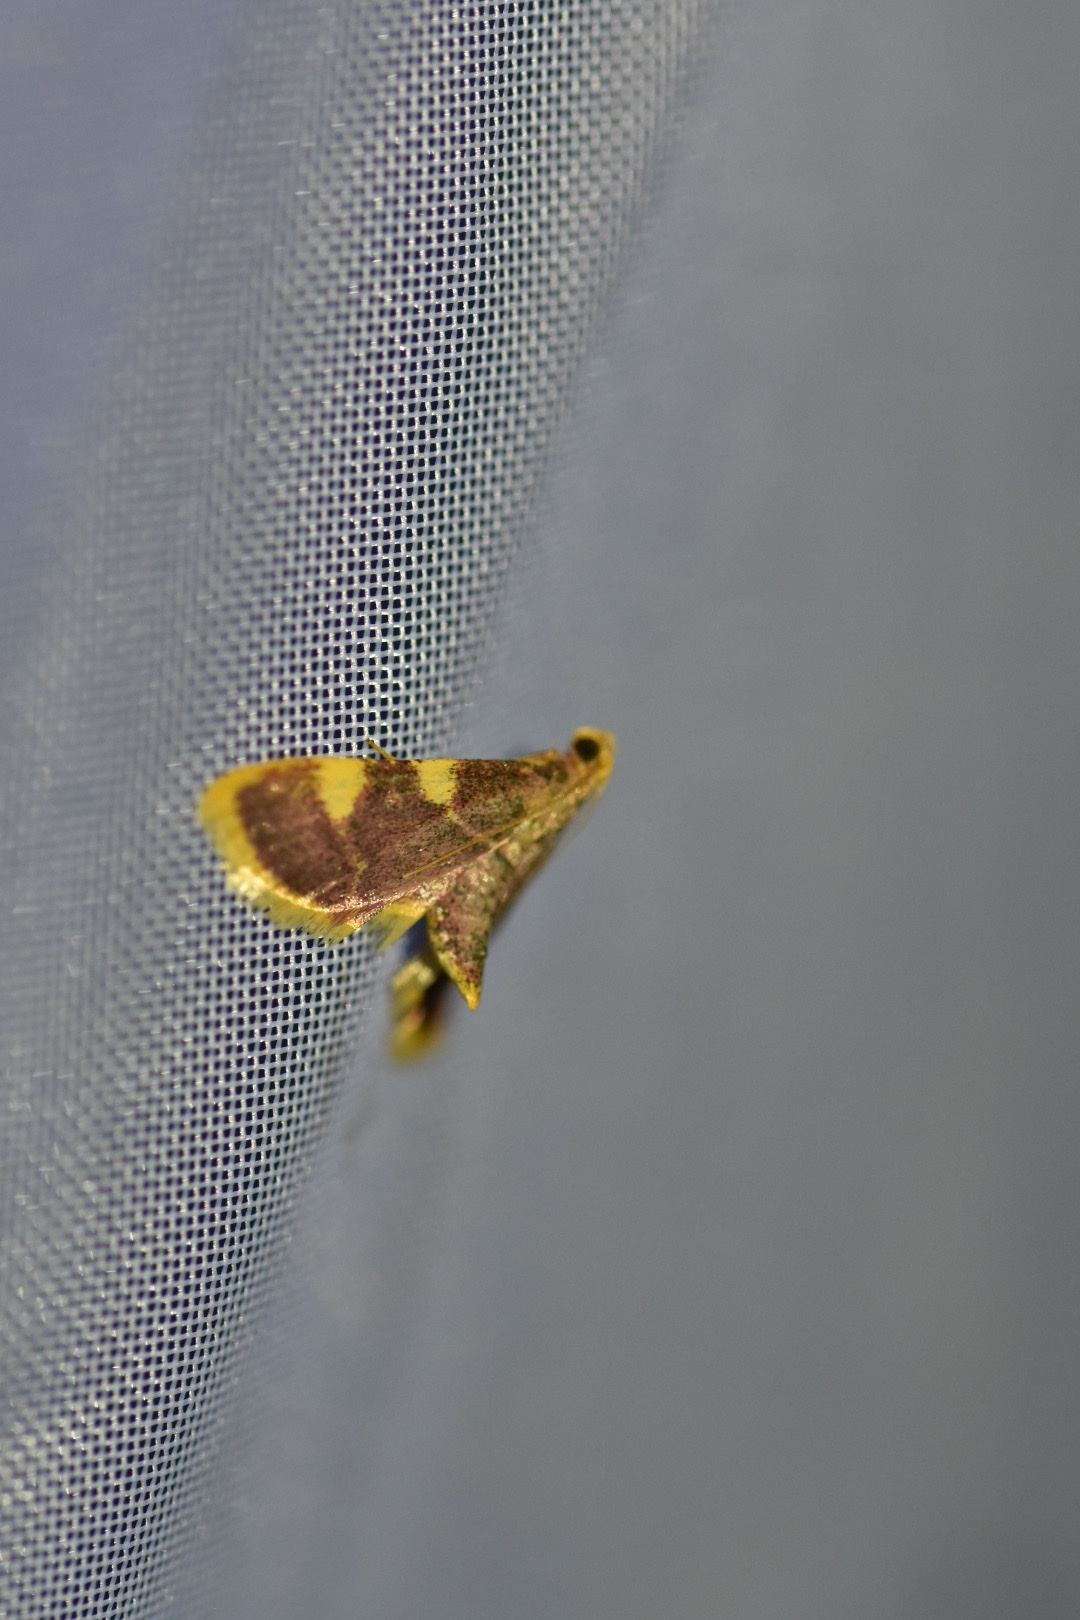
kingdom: Animalia
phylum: Arthropoda
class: Insecta
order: Lepidoptera
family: Pyralidae
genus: Hypsopygia
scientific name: Hypsopygia costalis
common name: Gold triangle
